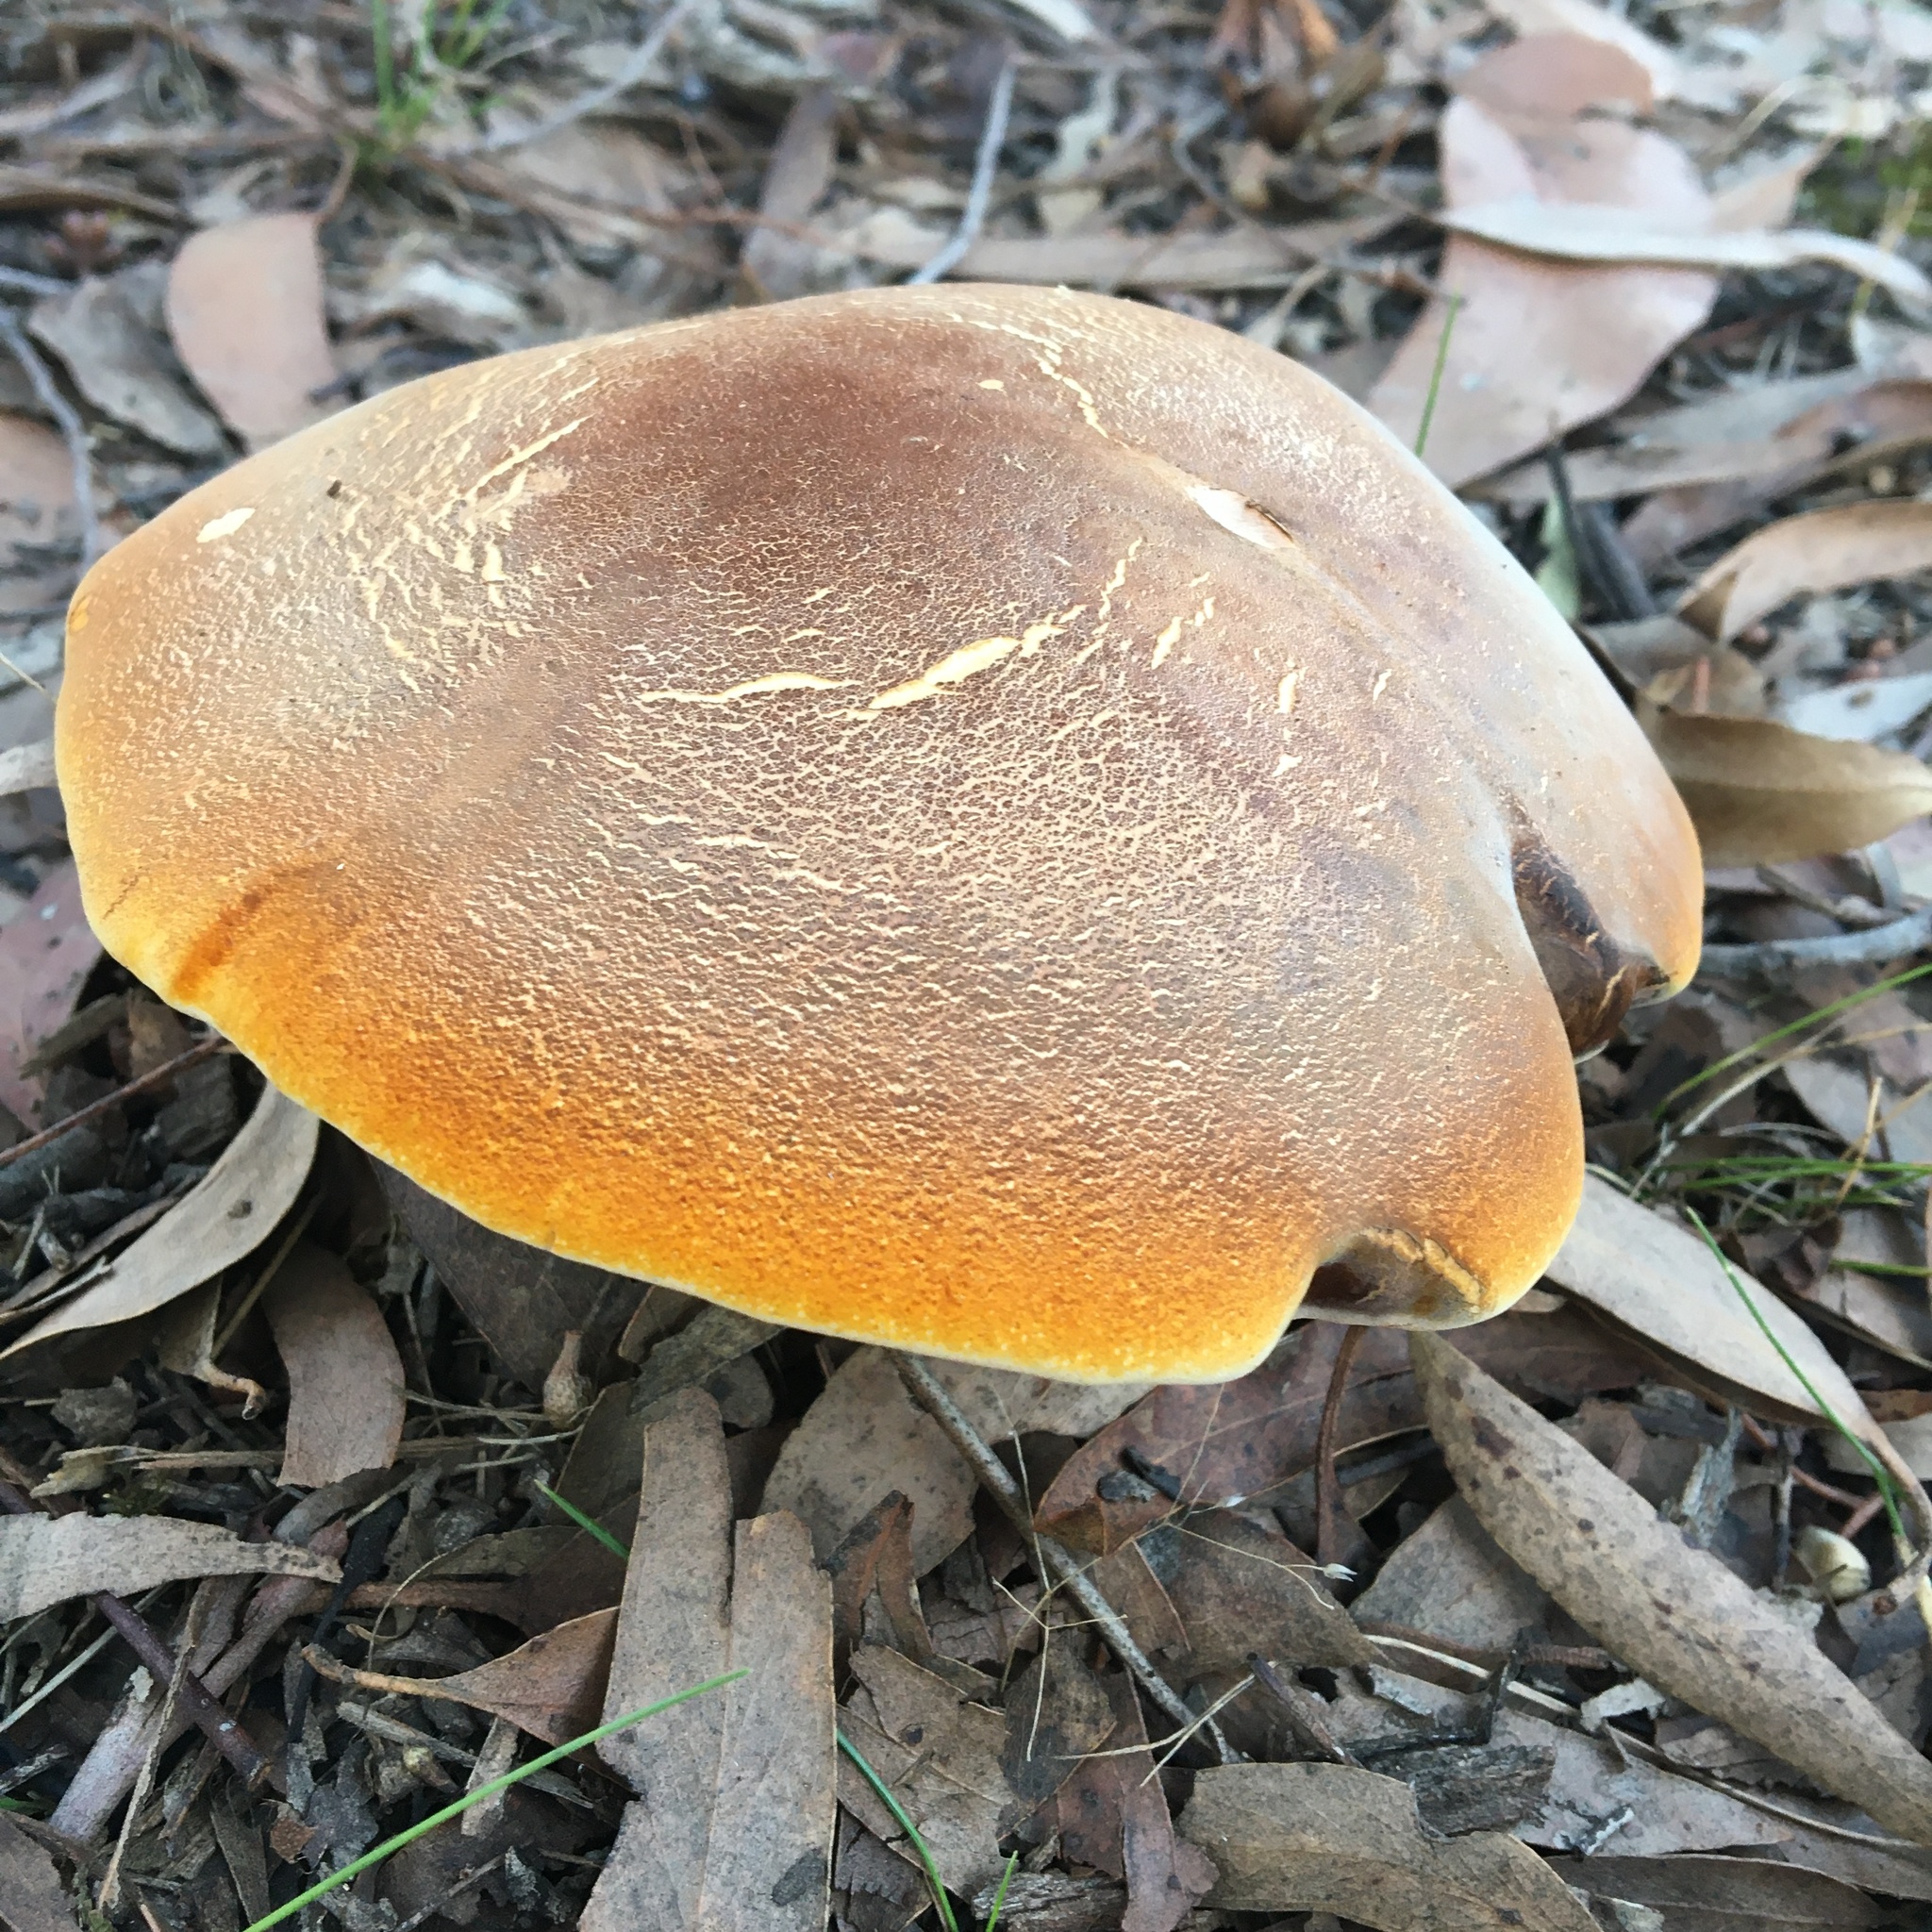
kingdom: Fungi
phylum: Basidiomycota
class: Agaricomycetes
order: Polyporales
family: Fomitopsidaceae
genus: Fomitopsis
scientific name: Fomitopsis
